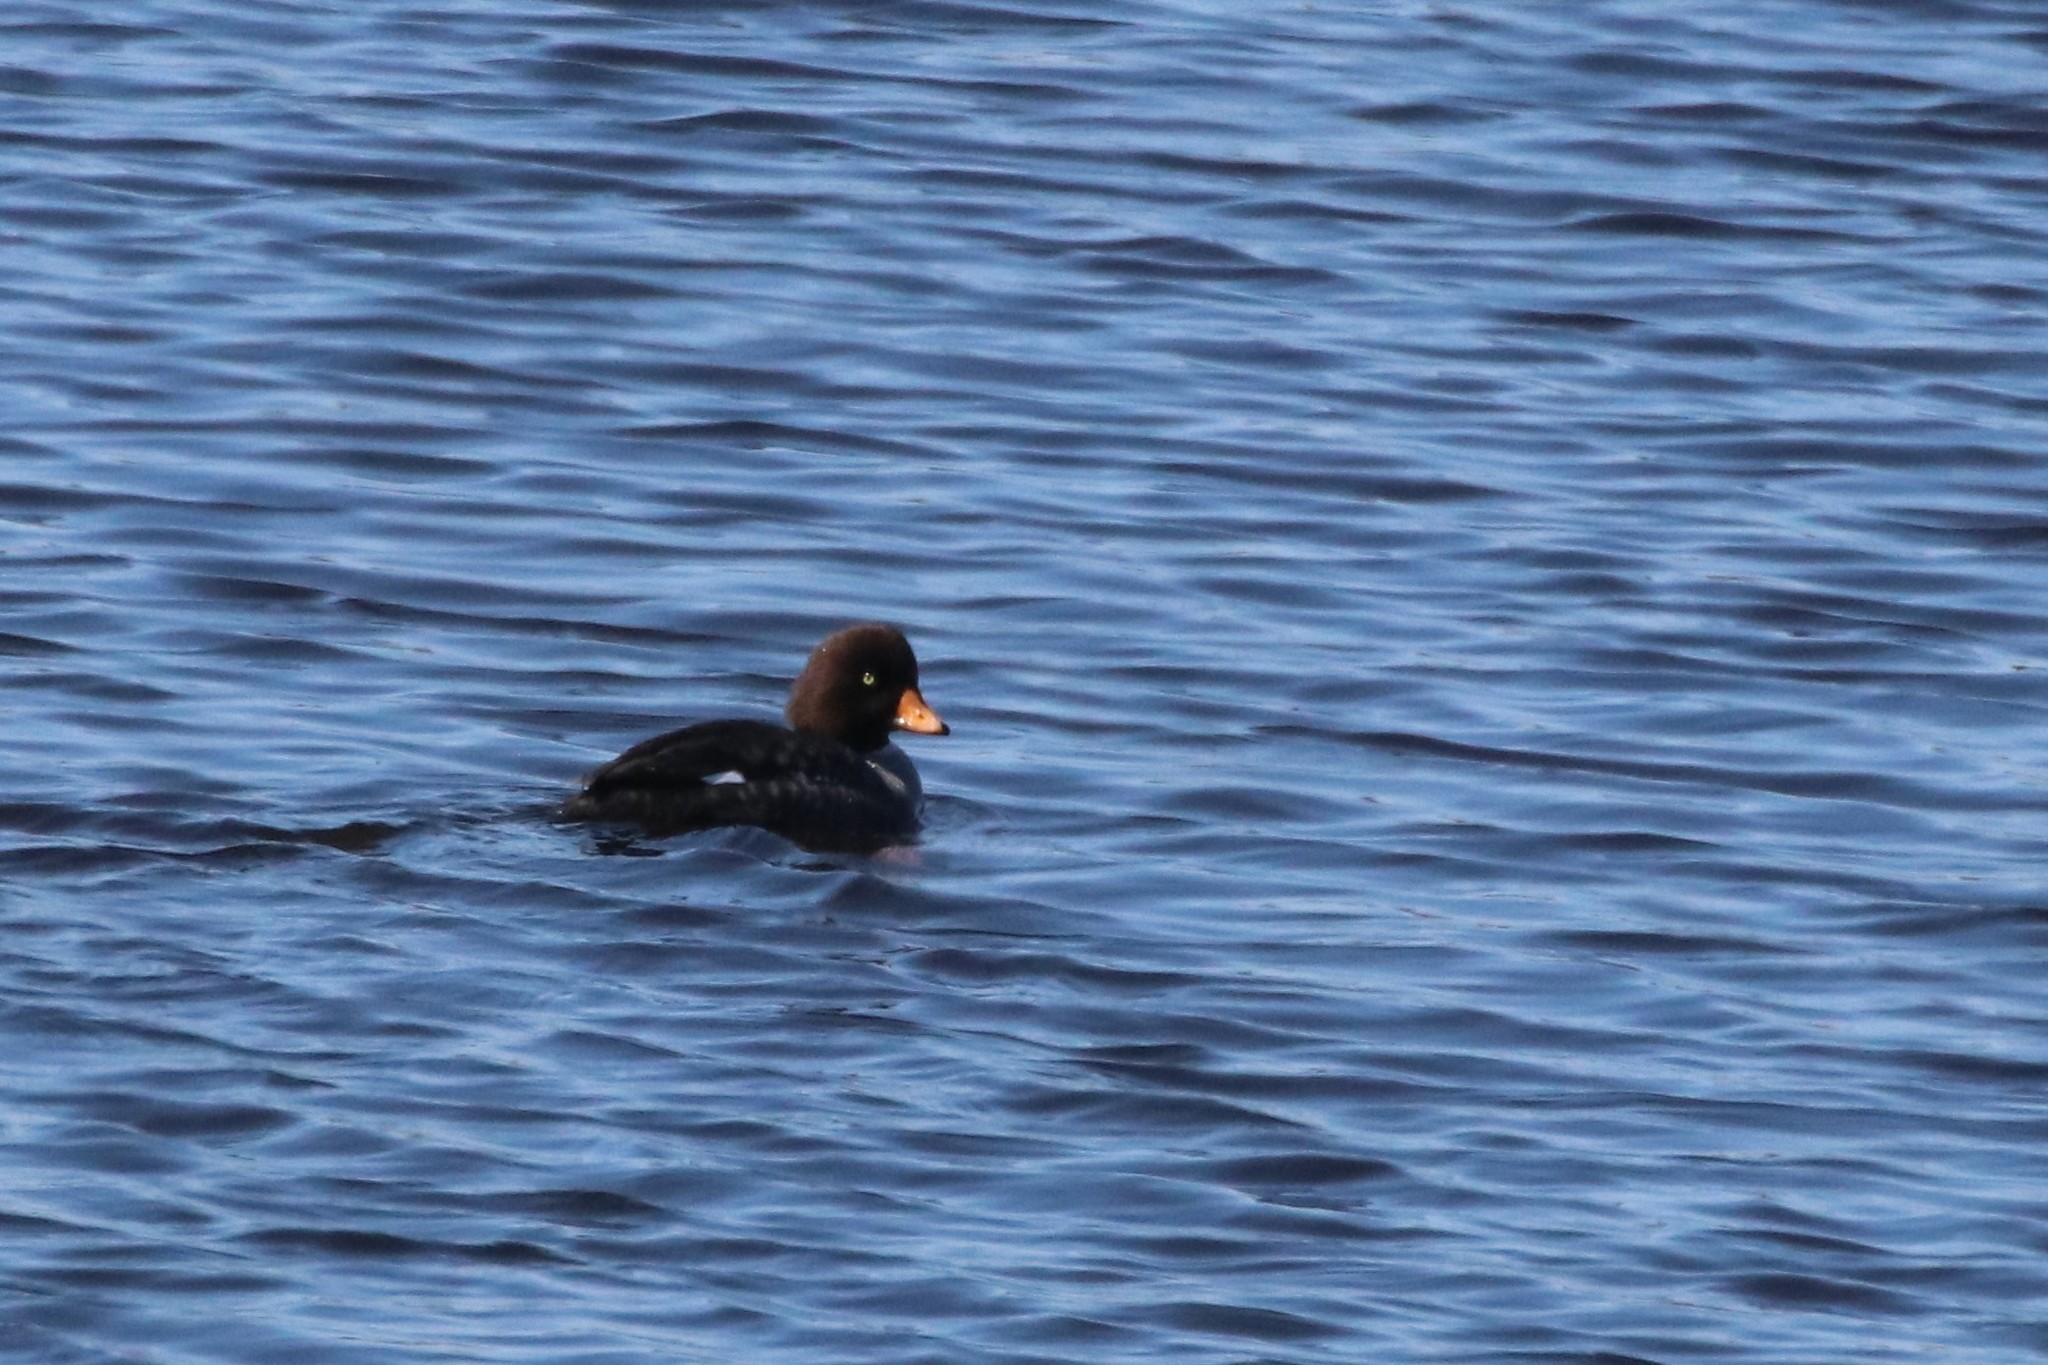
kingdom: Animalia
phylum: Chordata
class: Aves
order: Anseriformes
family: Anatidae
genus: Bucephala
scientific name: Bucephala islandica
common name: Barrow's goldeneye
